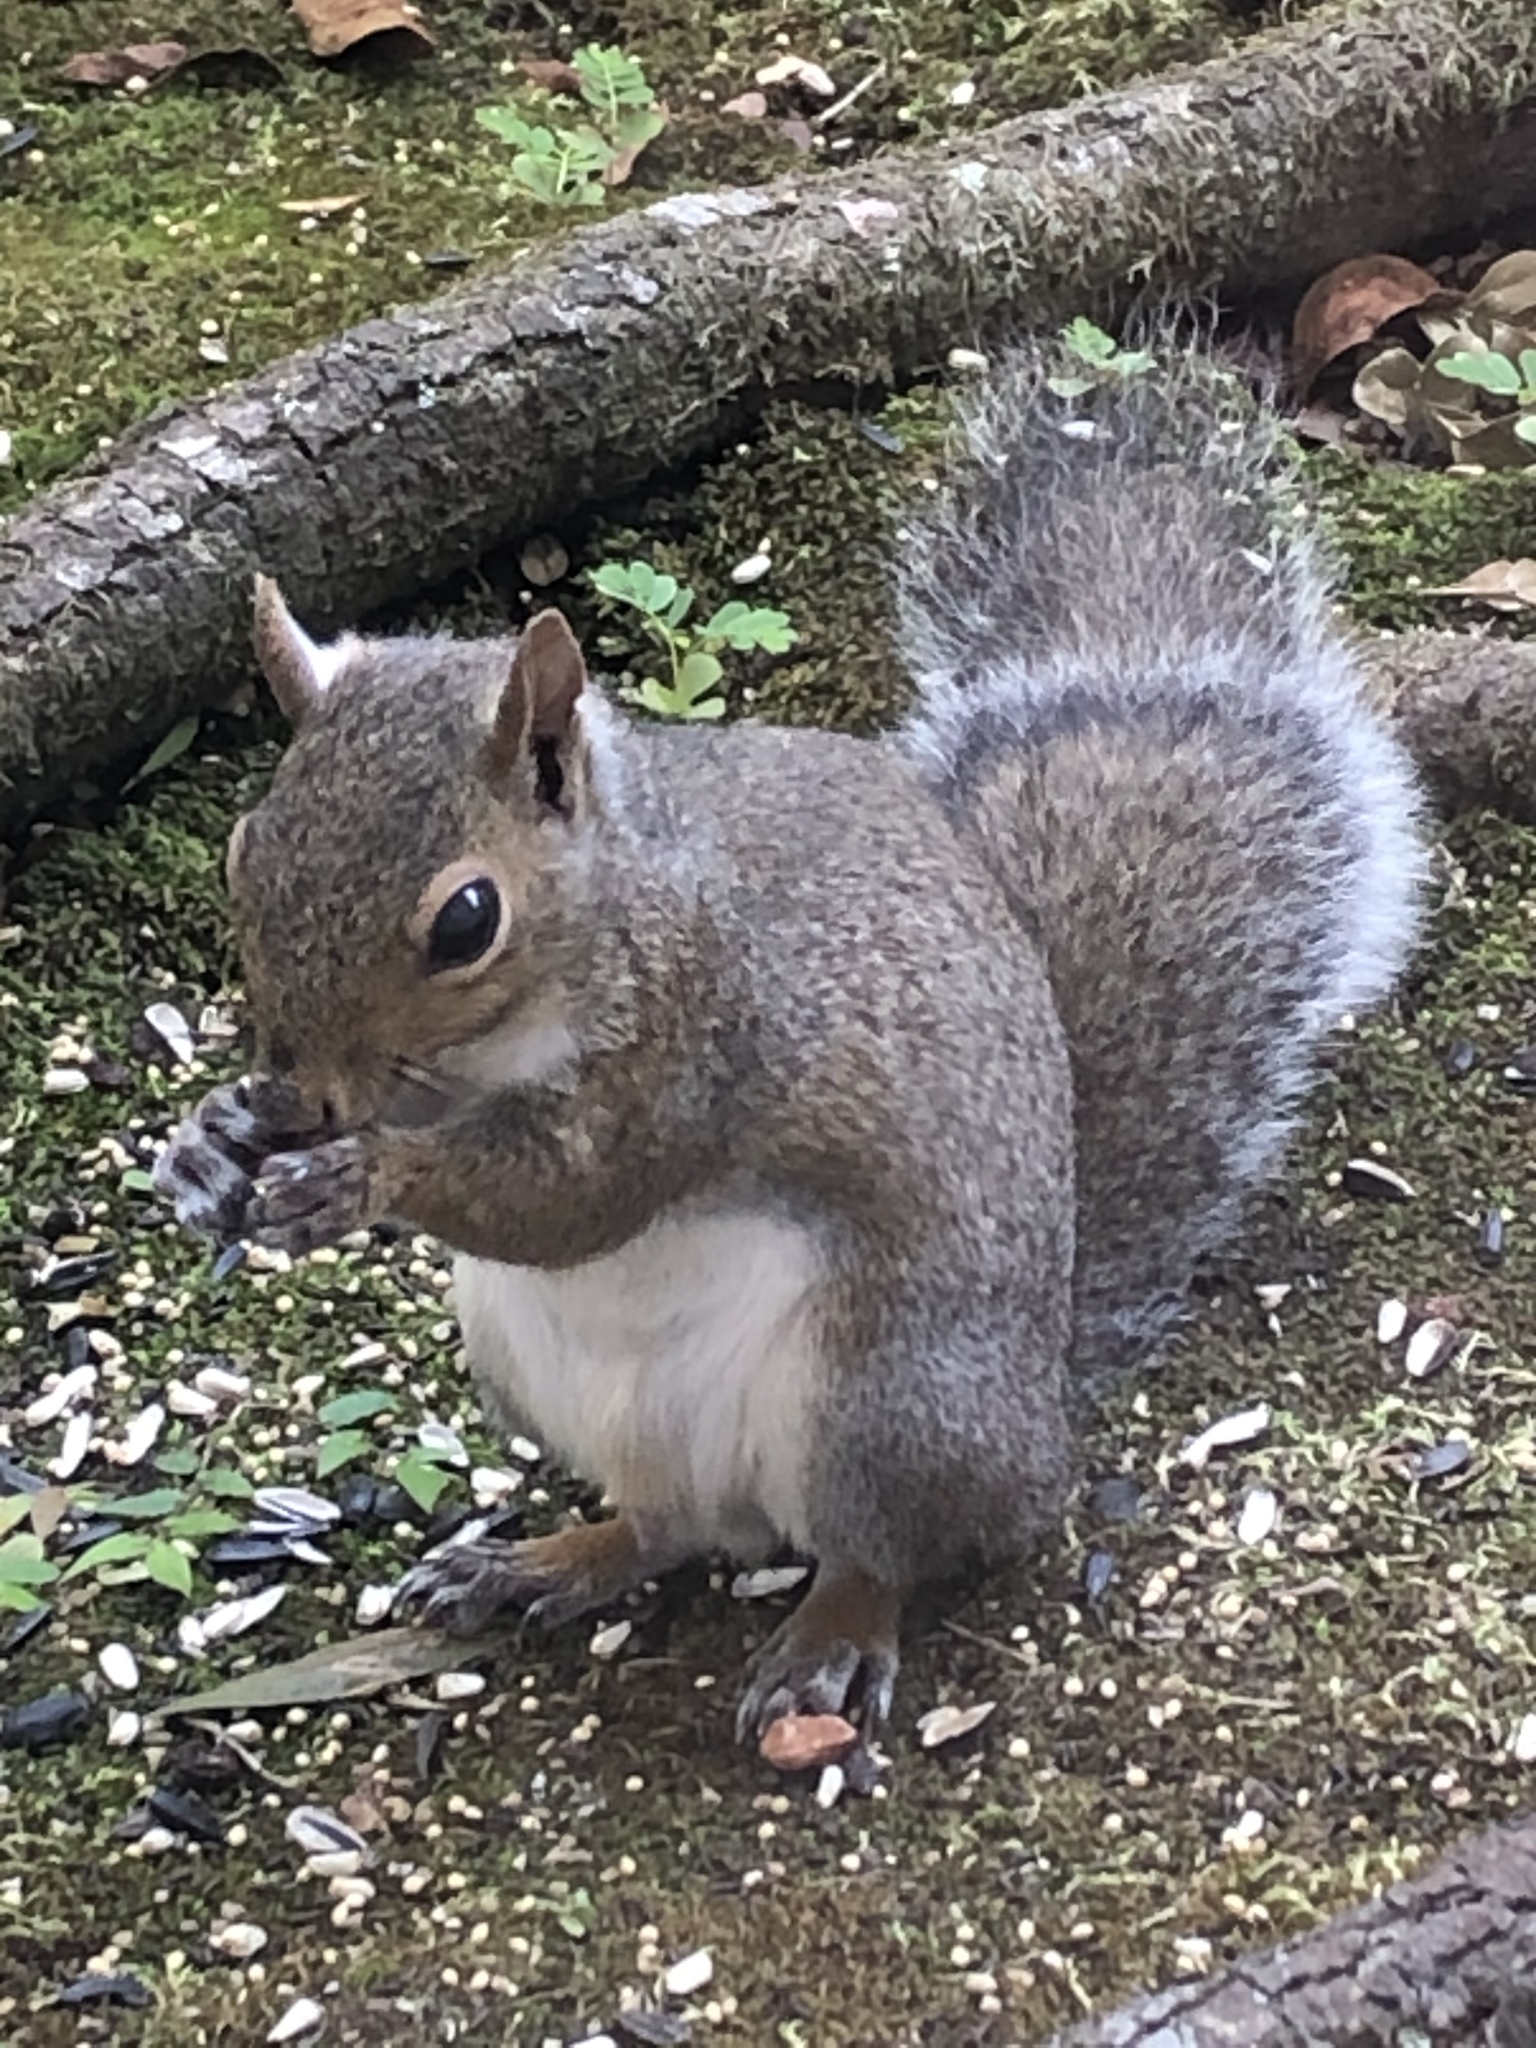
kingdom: Animalia
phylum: Chordata
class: Mammalia
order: Rodentia
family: Sciuridae
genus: Sciurus
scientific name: Sciurus carolinensis
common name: Eastern gray squirrel
